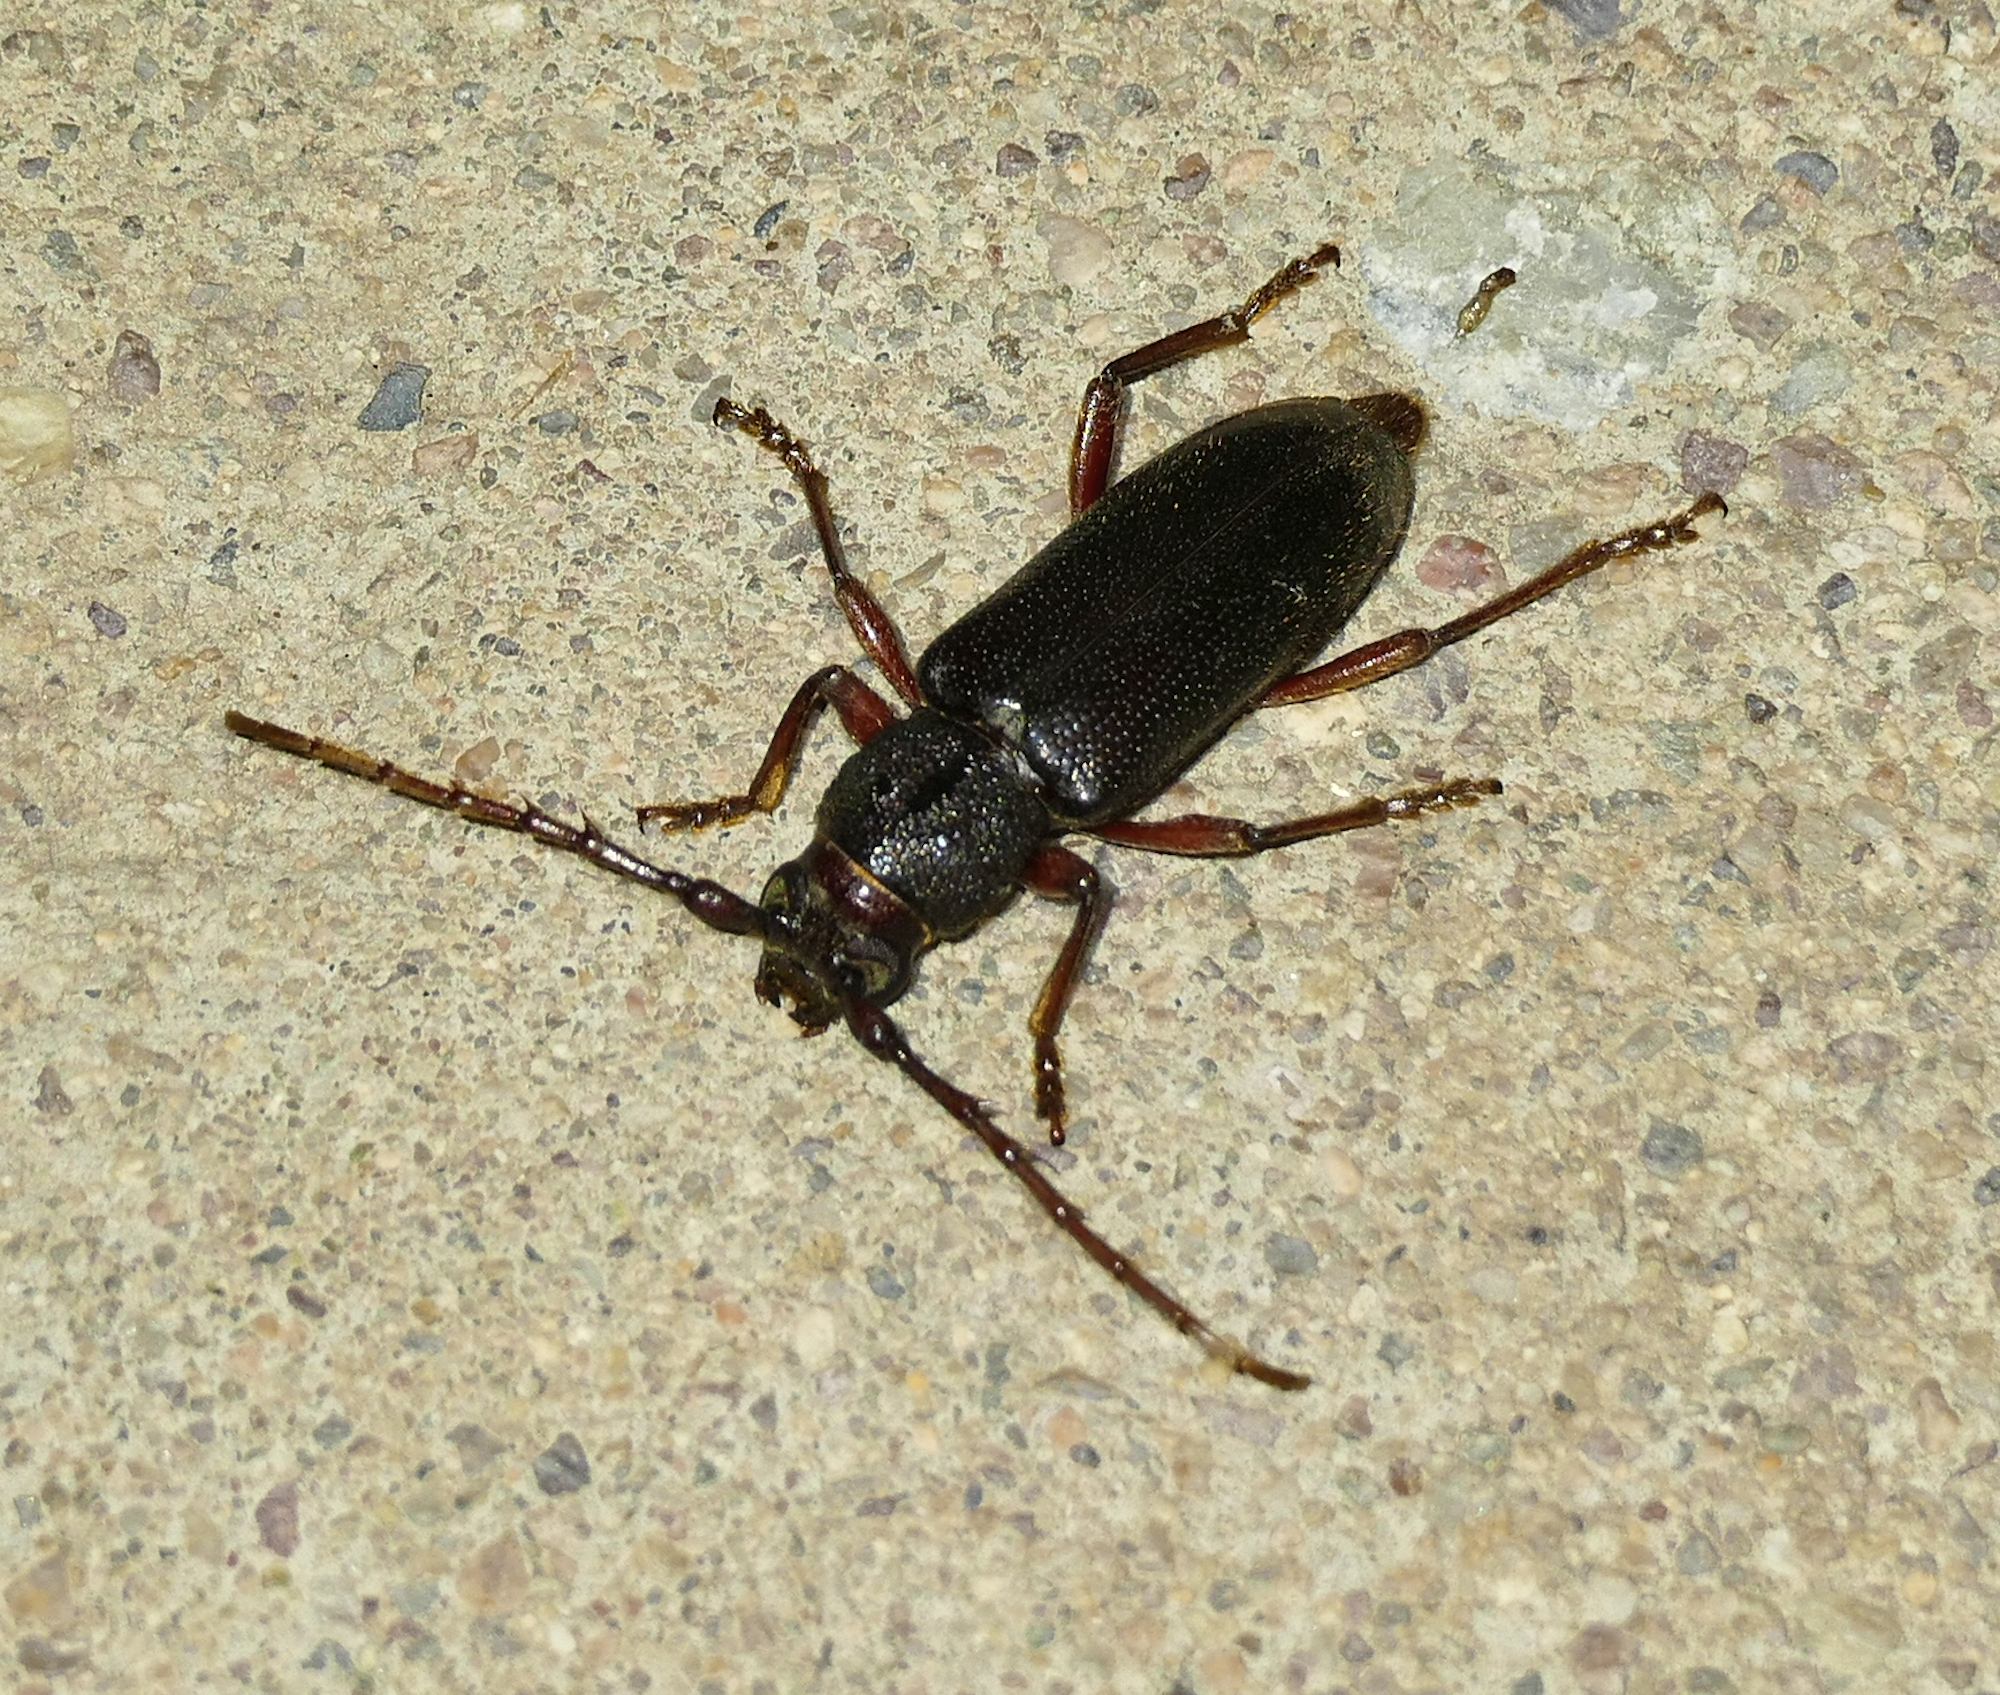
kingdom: Animalia
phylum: Arthropoda
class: Insecta
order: Coleoptera
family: Cerambycidae
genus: Enaphalodes
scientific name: Enaphalodes seminitidus
